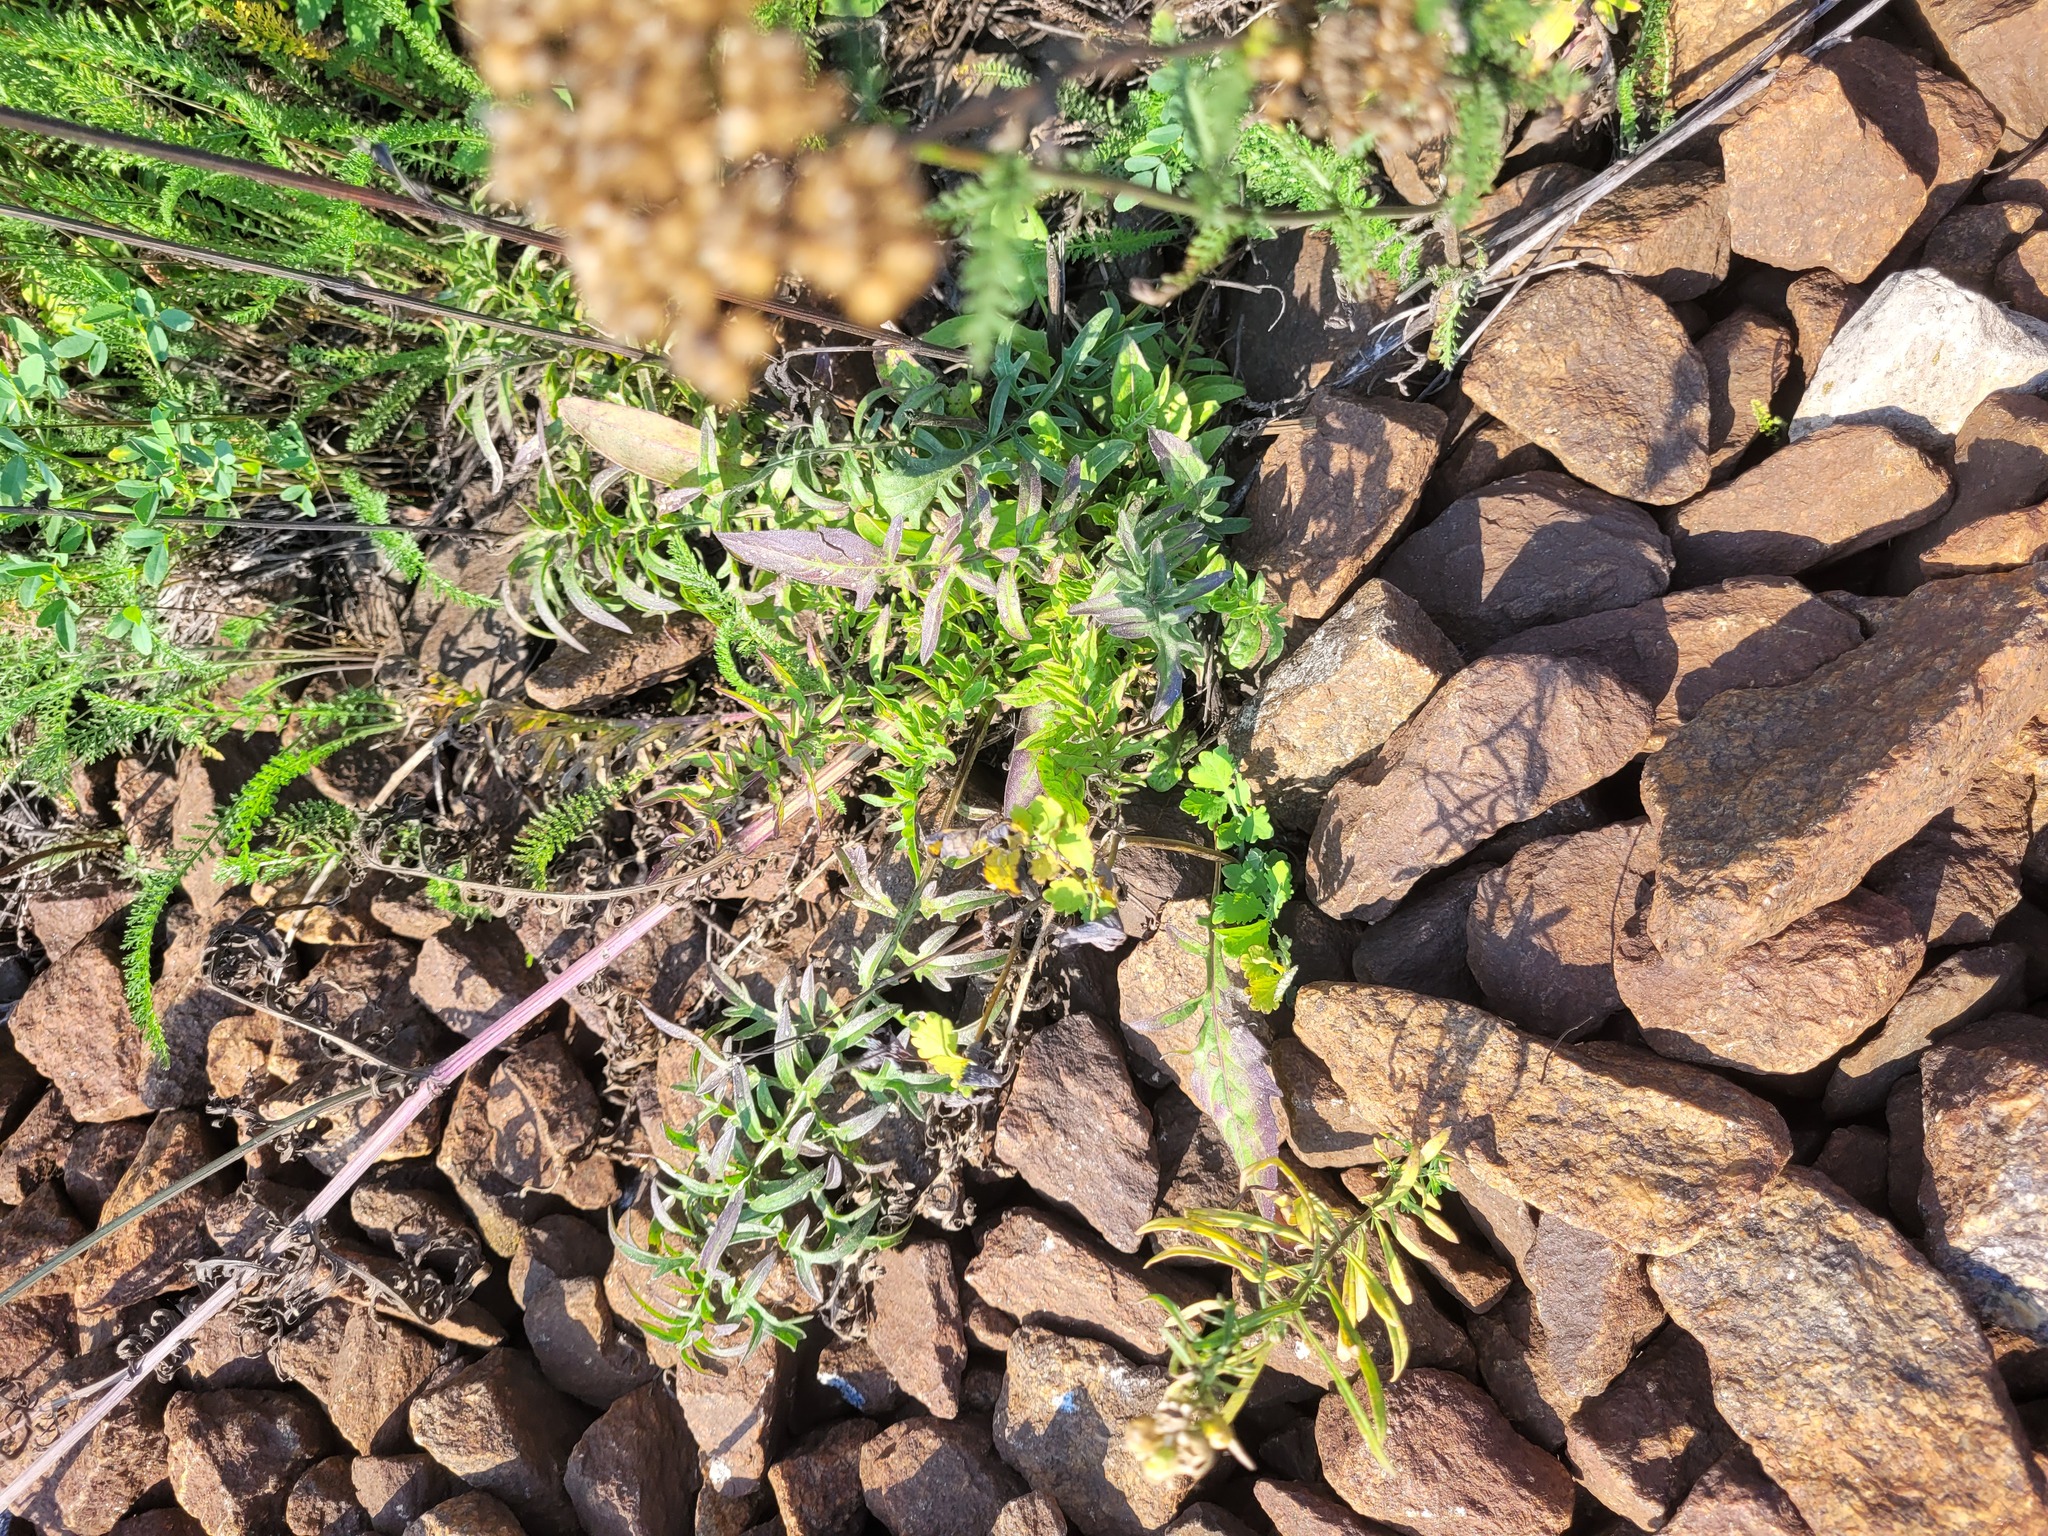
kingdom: Plantae
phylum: Tracheophyta
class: Magnoliopsida
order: Asterales
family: Asteraceae
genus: Centaurea
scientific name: Centaurea scabiosa
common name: Greater knapweed
